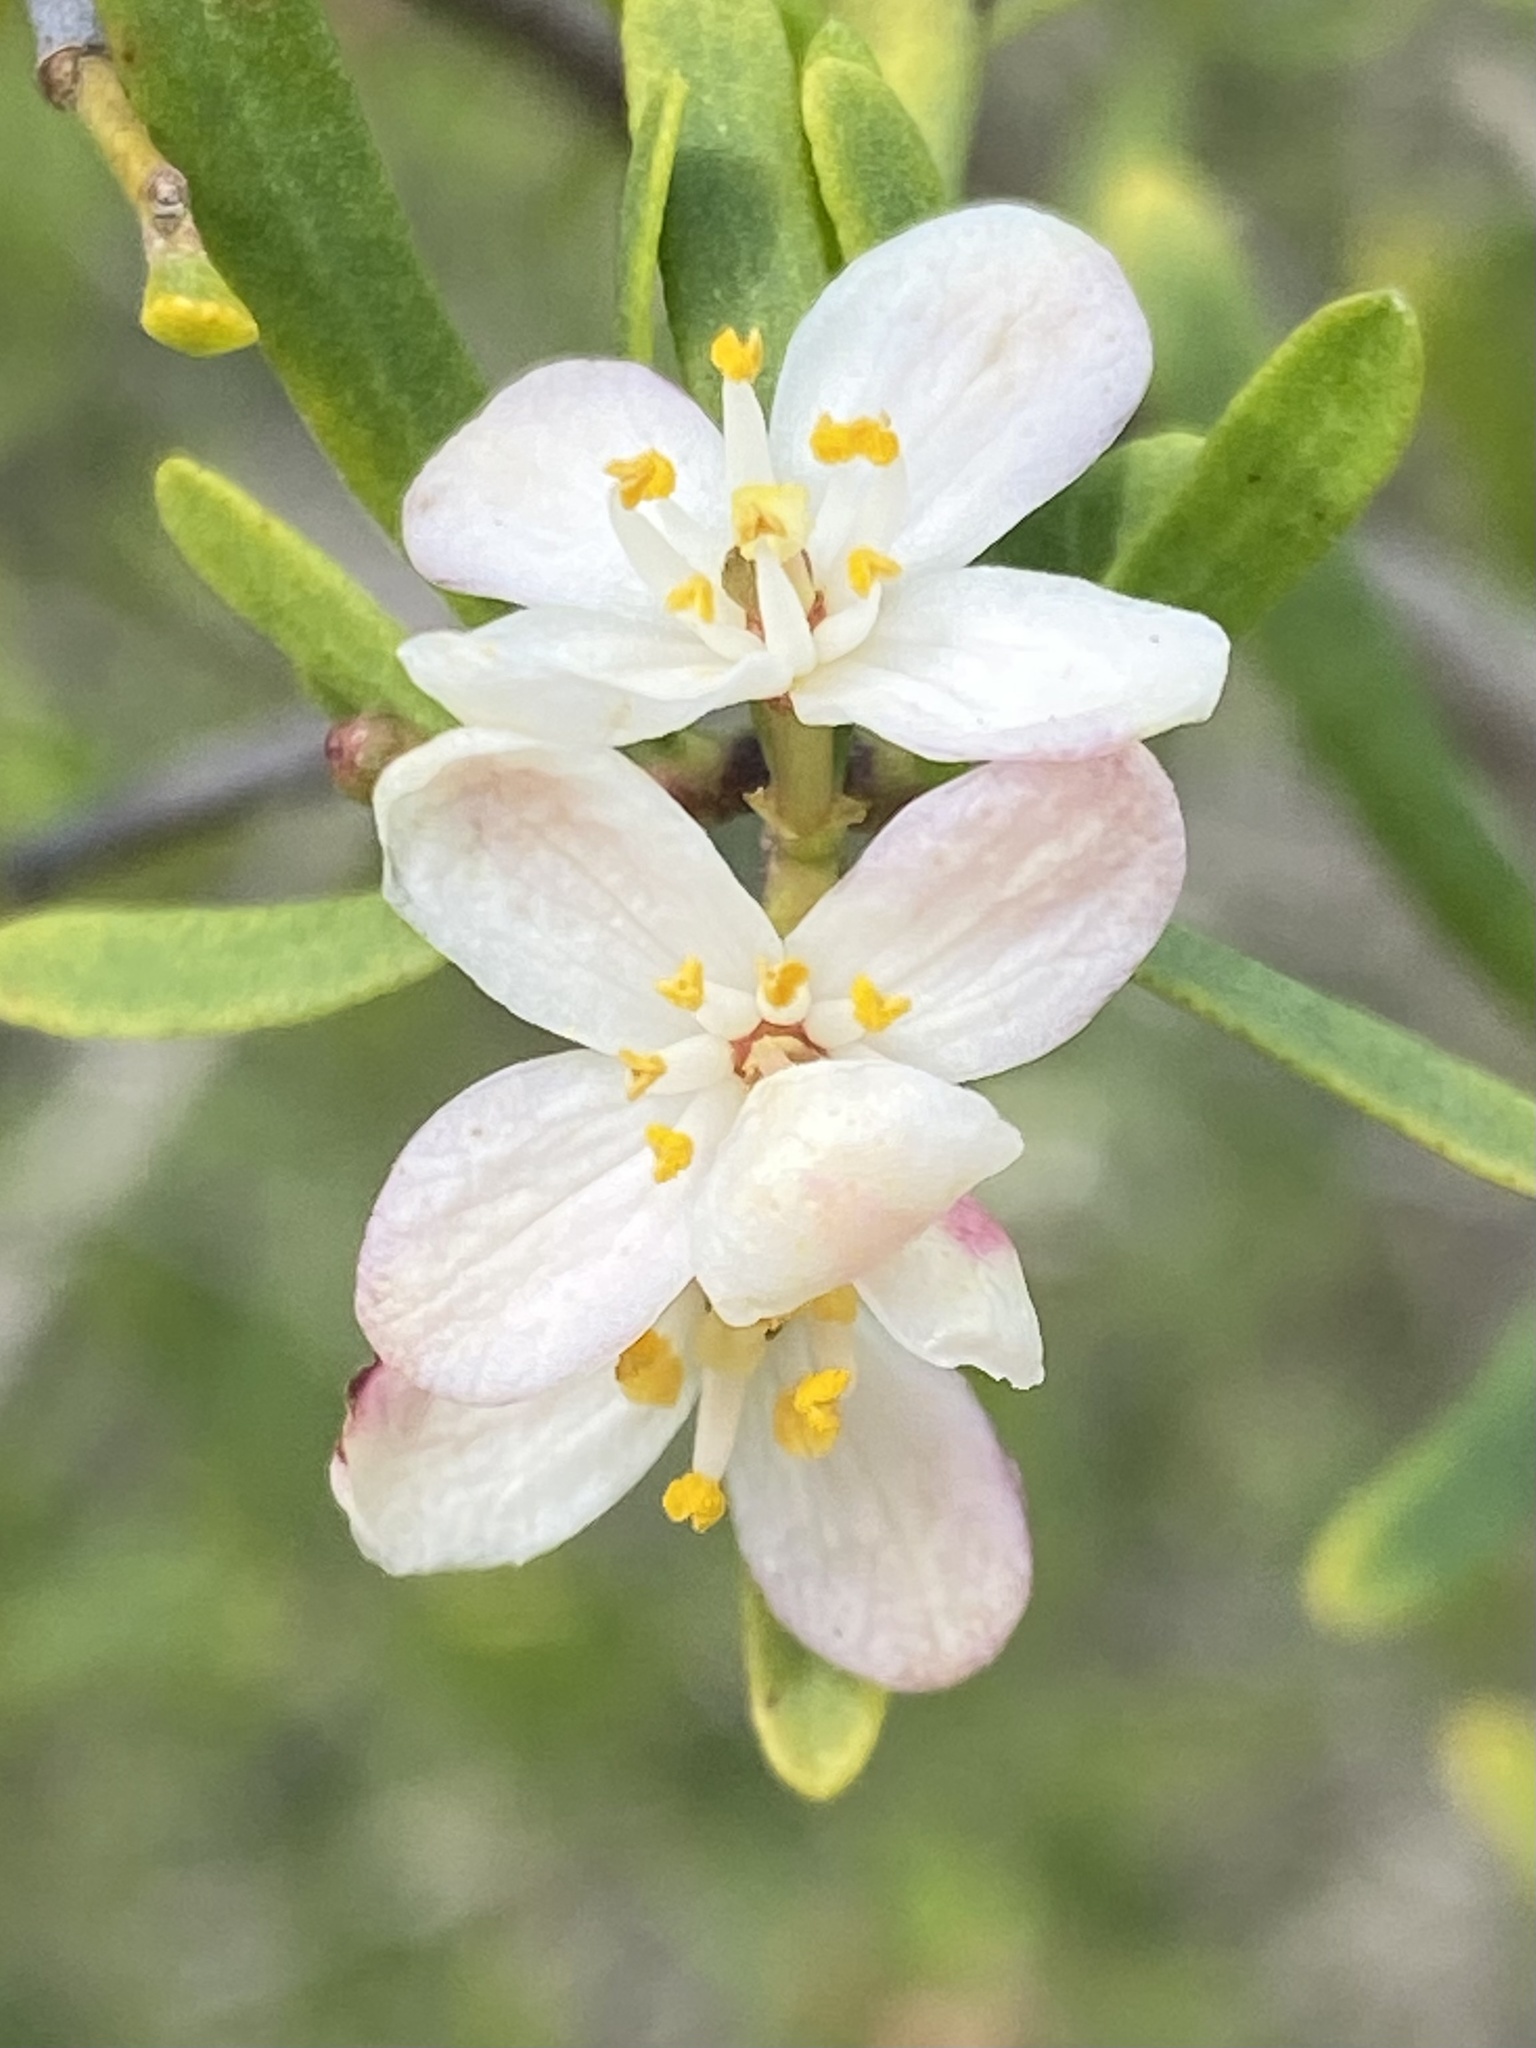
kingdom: Plantae
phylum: Tracheophyta
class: Magnoliopsida
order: Sapindales
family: Rutaceae
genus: Cneoridium
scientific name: Cneoridium dumosum
